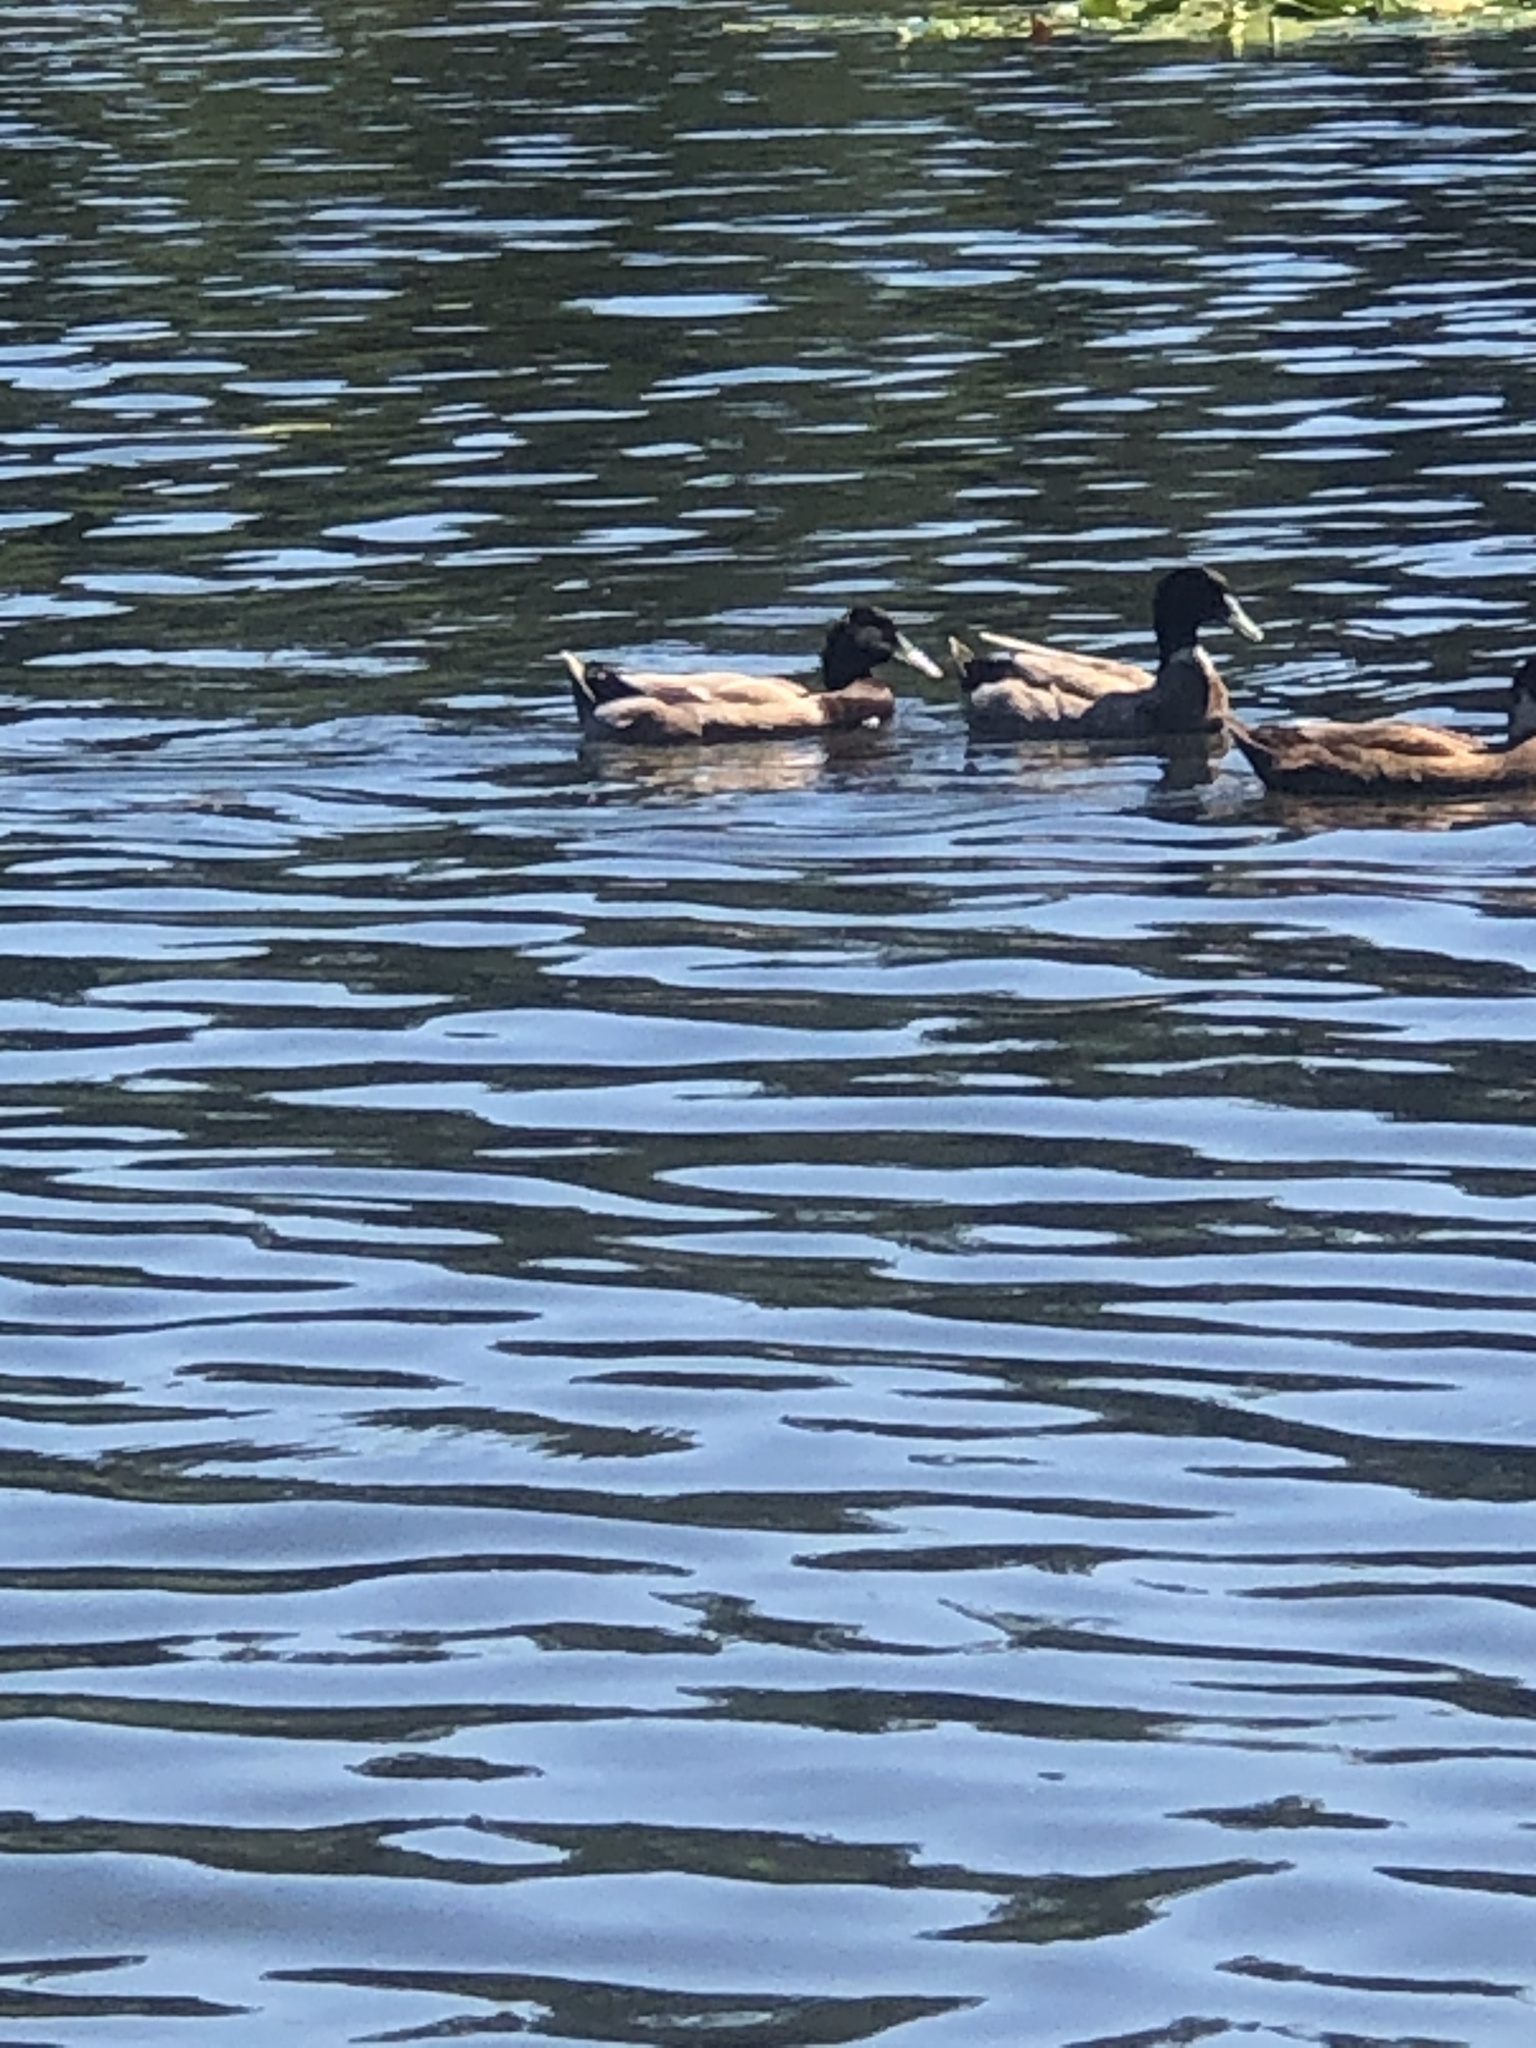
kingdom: Animalia
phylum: Chordata
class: Aves
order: Anseriformes
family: Anatidae
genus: Anas
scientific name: Anas platyrhynchos
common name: Mallard
